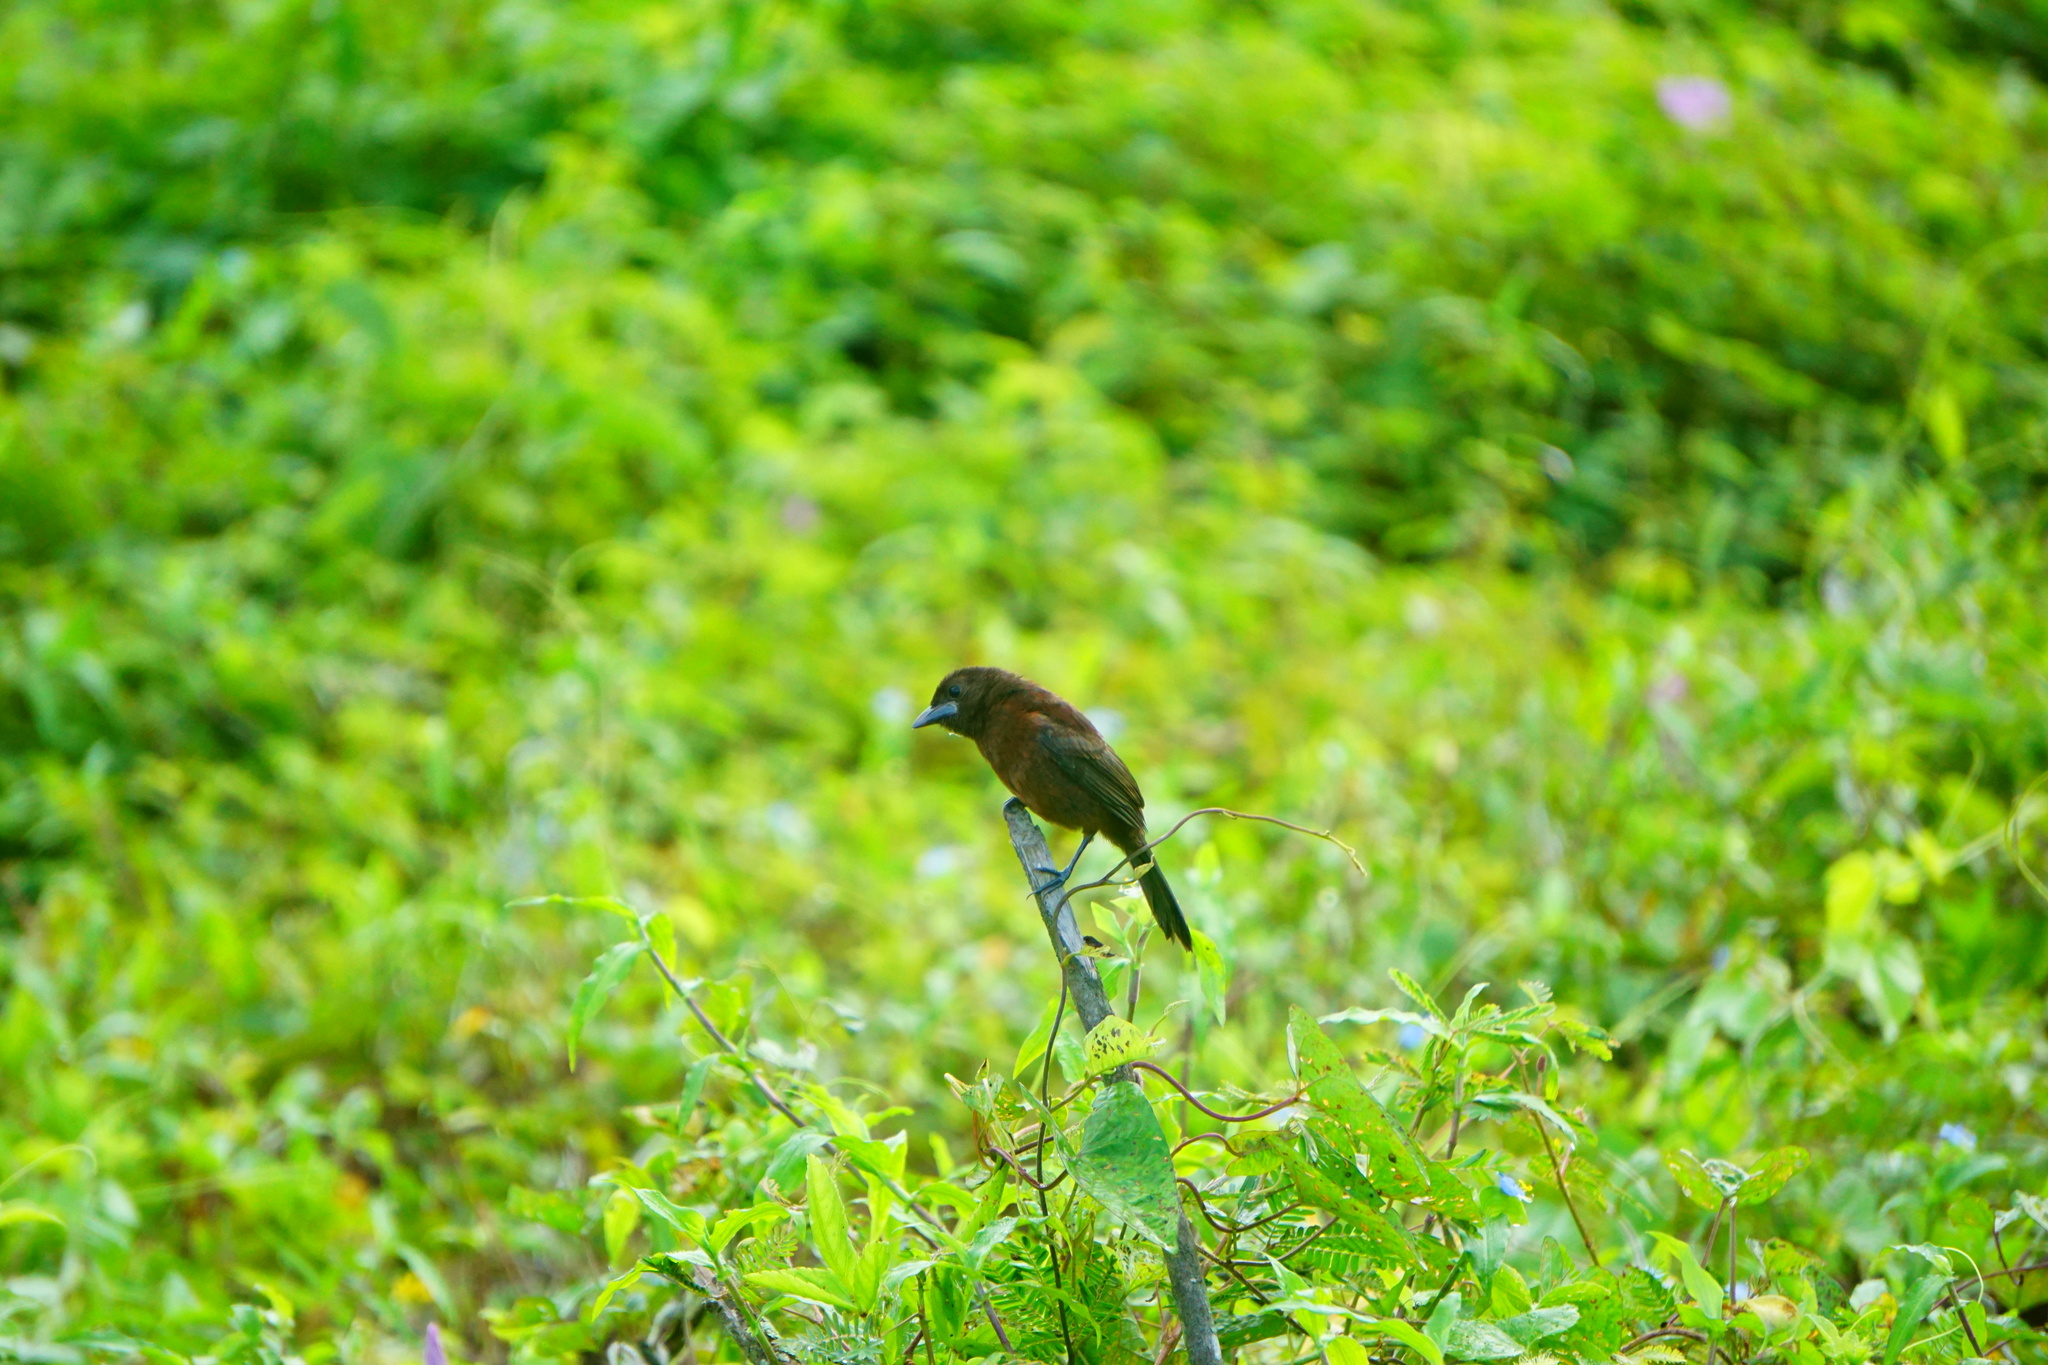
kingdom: Animalia
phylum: Chordata
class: Aves
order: Passeriformes
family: Thraupidae
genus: Ramphocelus
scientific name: Ramphocelus carbo
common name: Silver-beaked tanager
